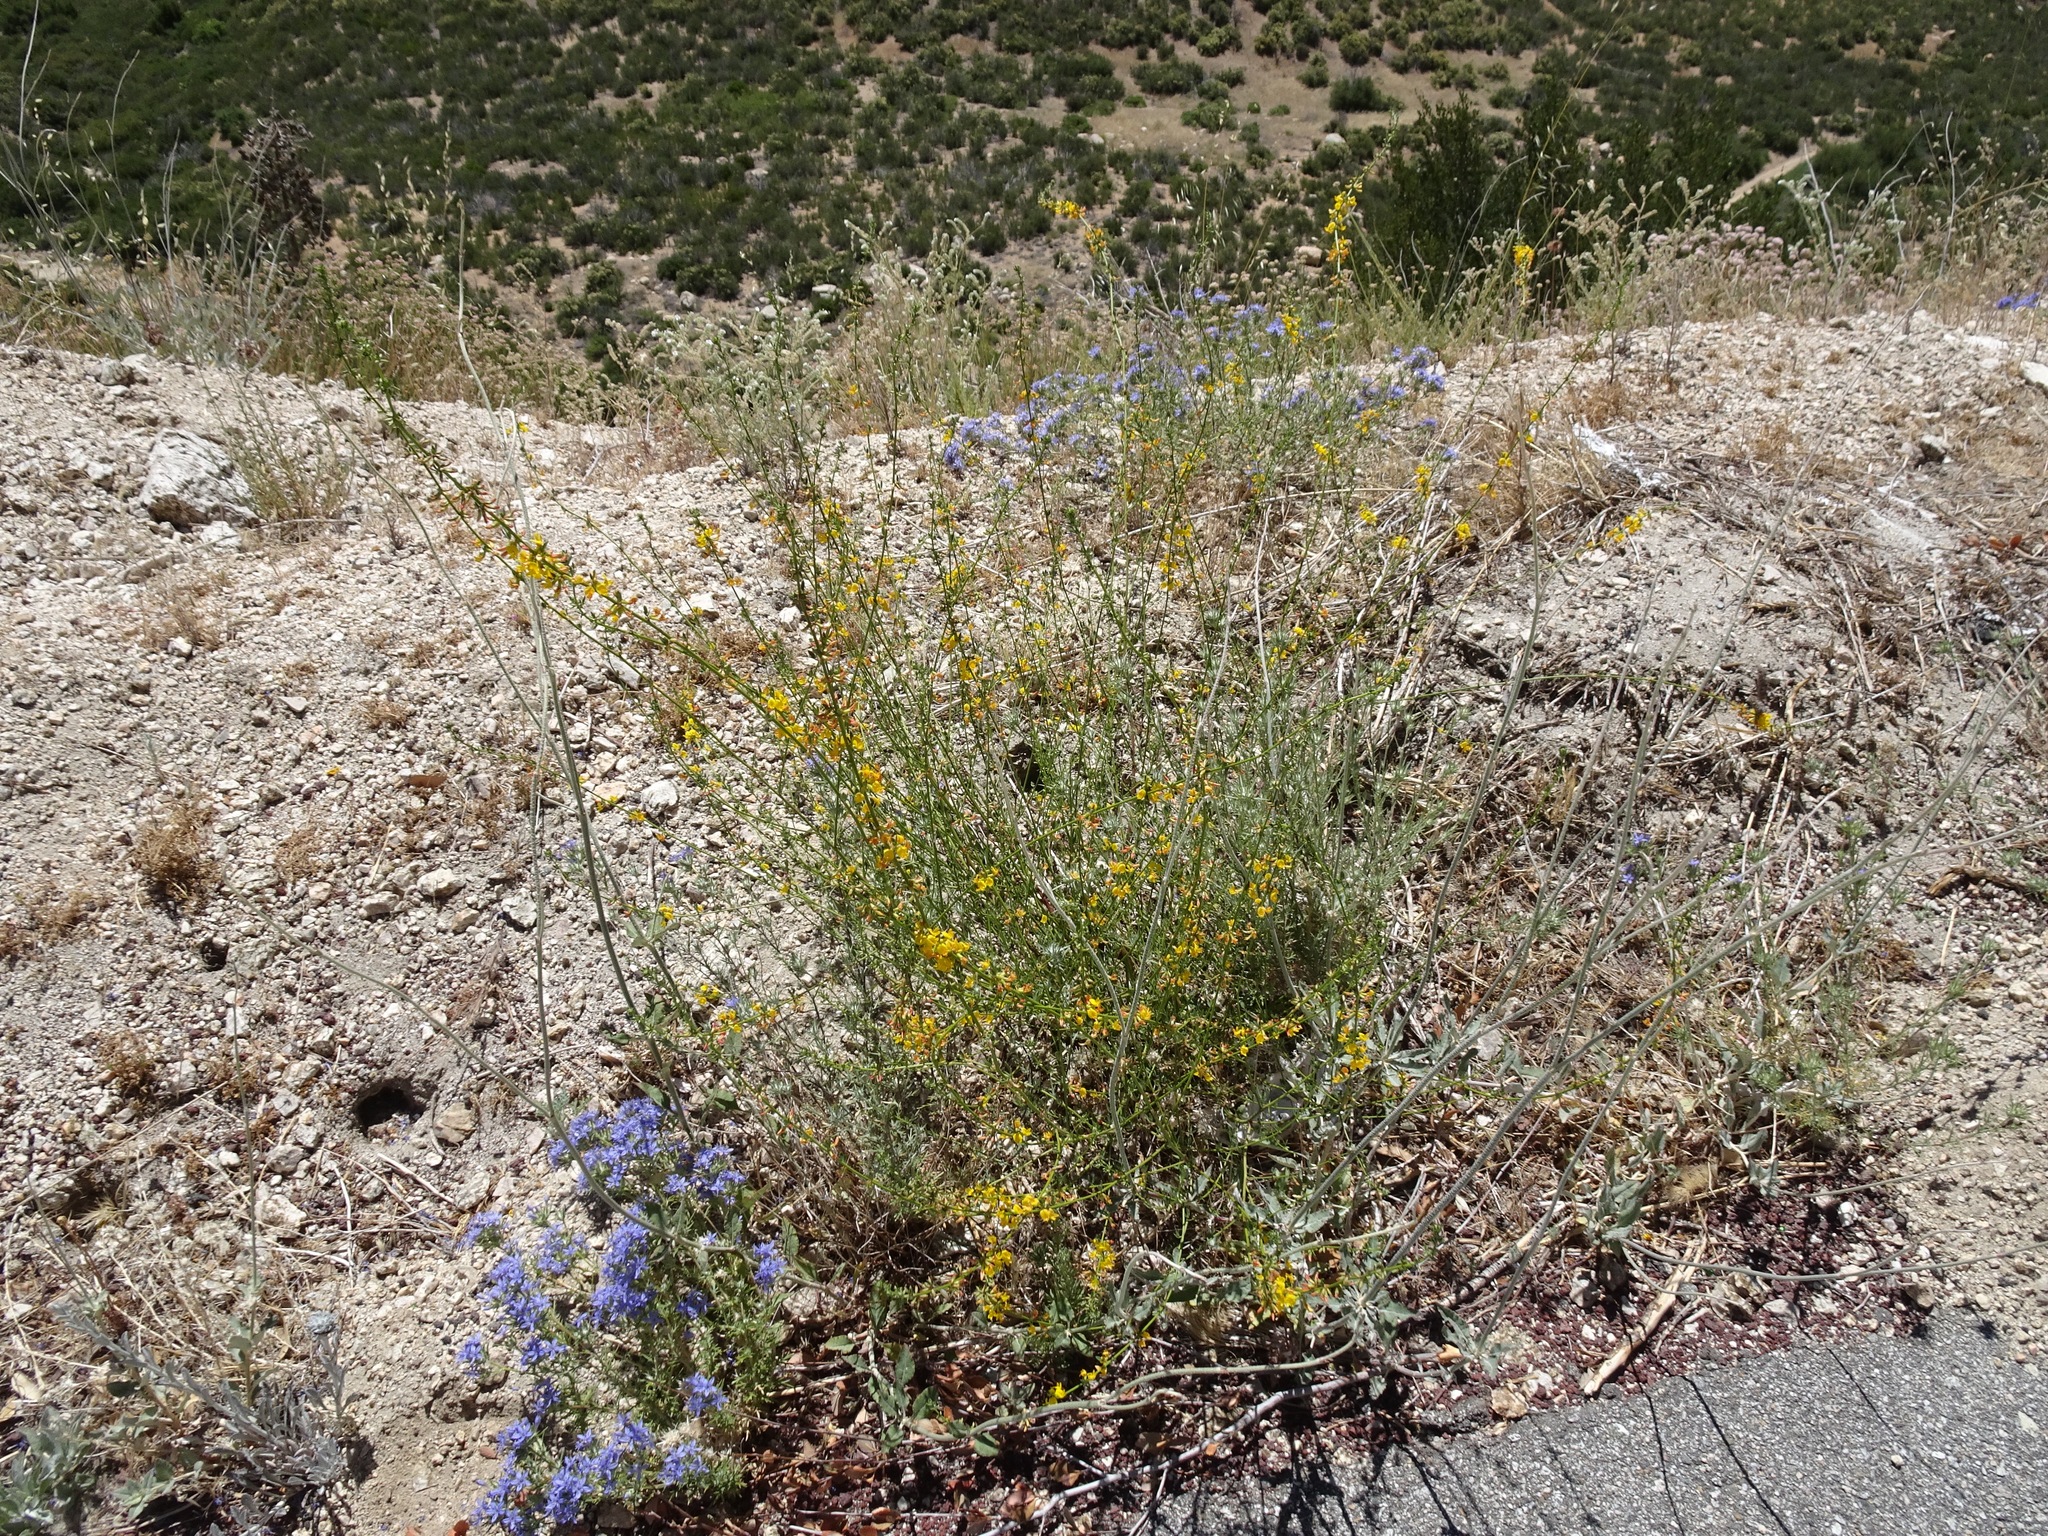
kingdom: Plantae
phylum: Tracheophyta
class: Magnoliopsida
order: Fabales
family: Fabaceae
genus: Acmispon
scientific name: Acmispon glaber
